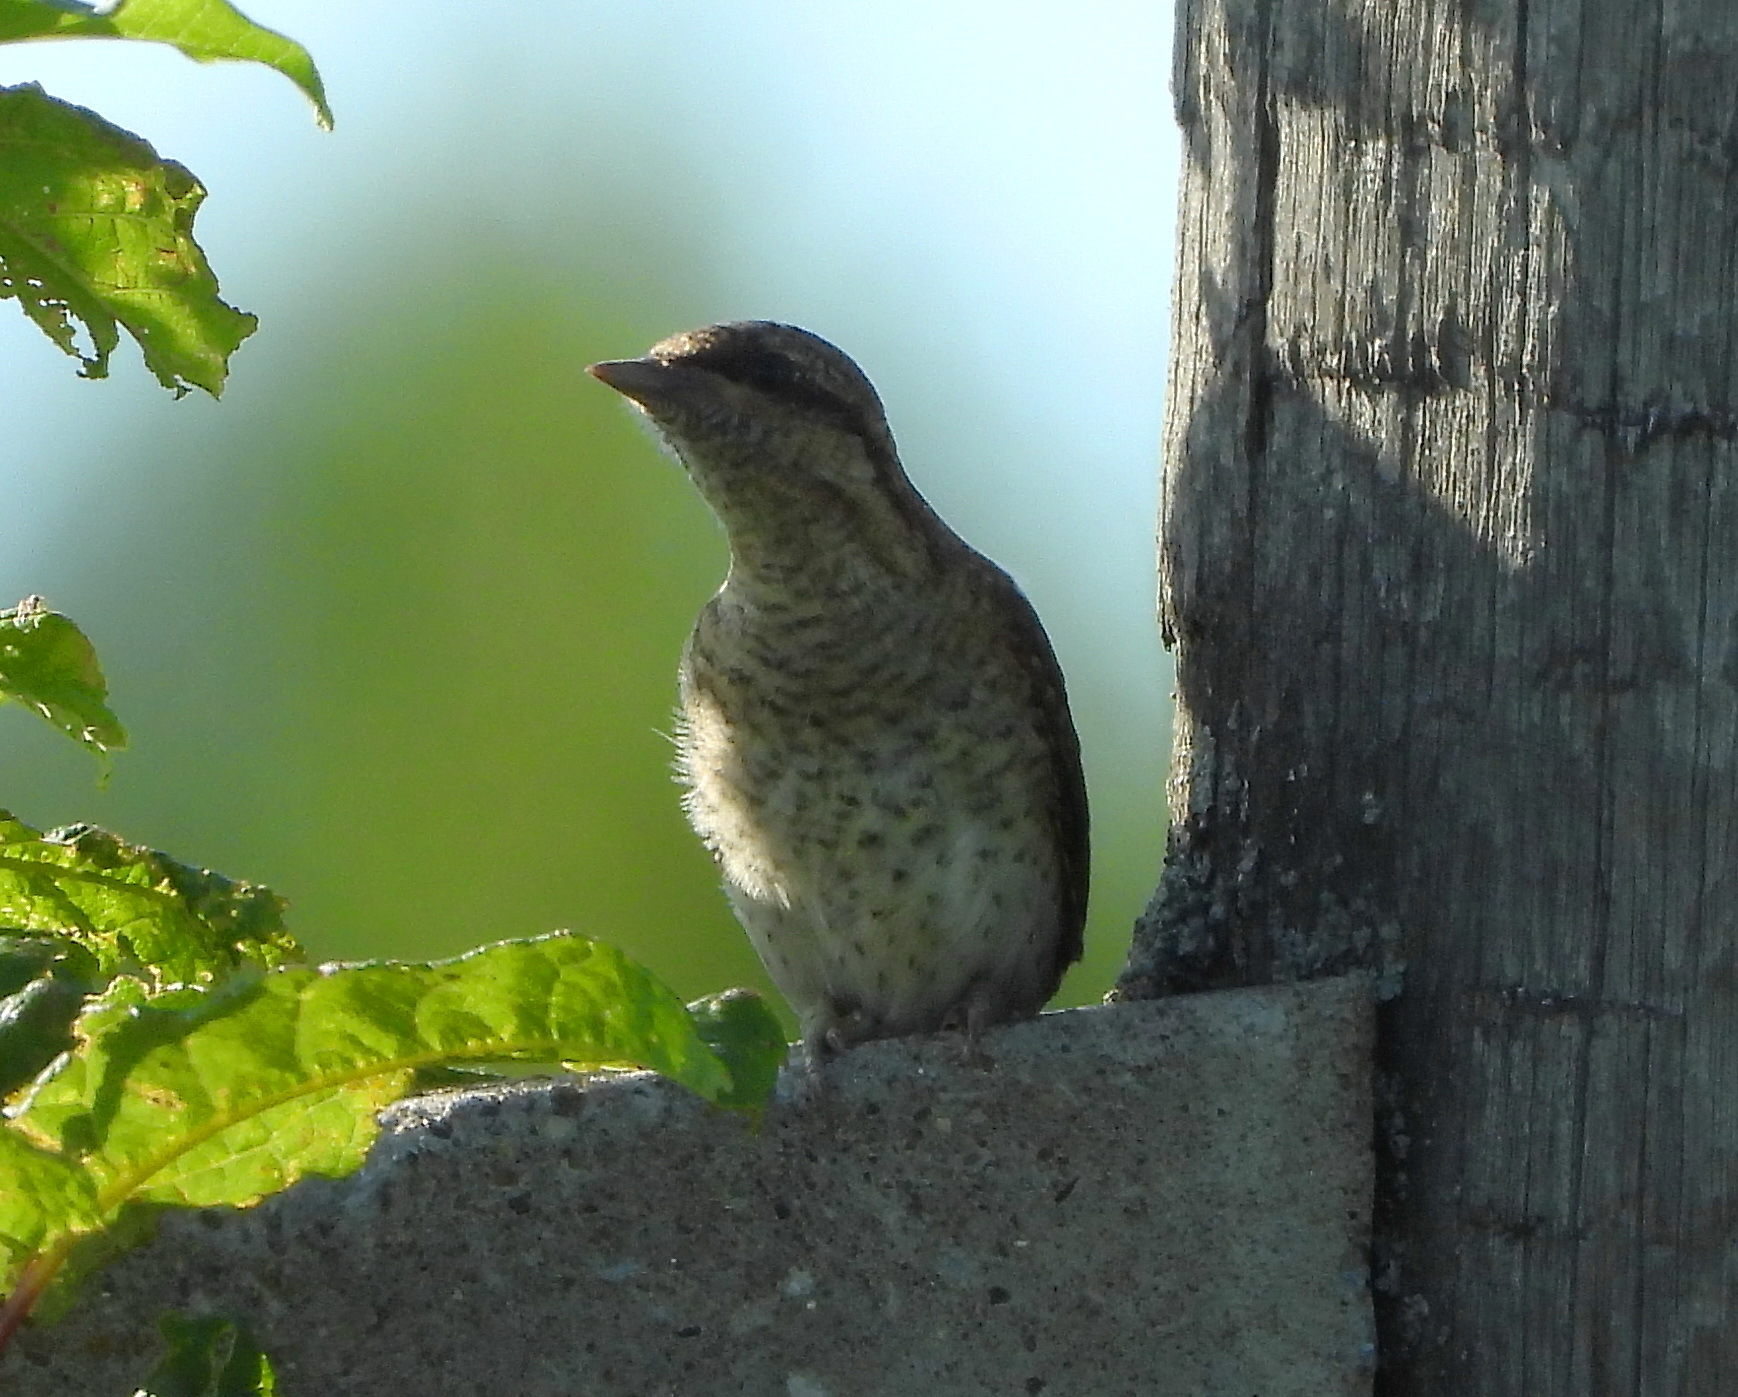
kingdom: Animalia
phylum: Chordata
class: Aves
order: Piciformes
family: Picidae
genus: Jynx
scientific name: Jynx torquilla
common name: Eurasian wryneck
